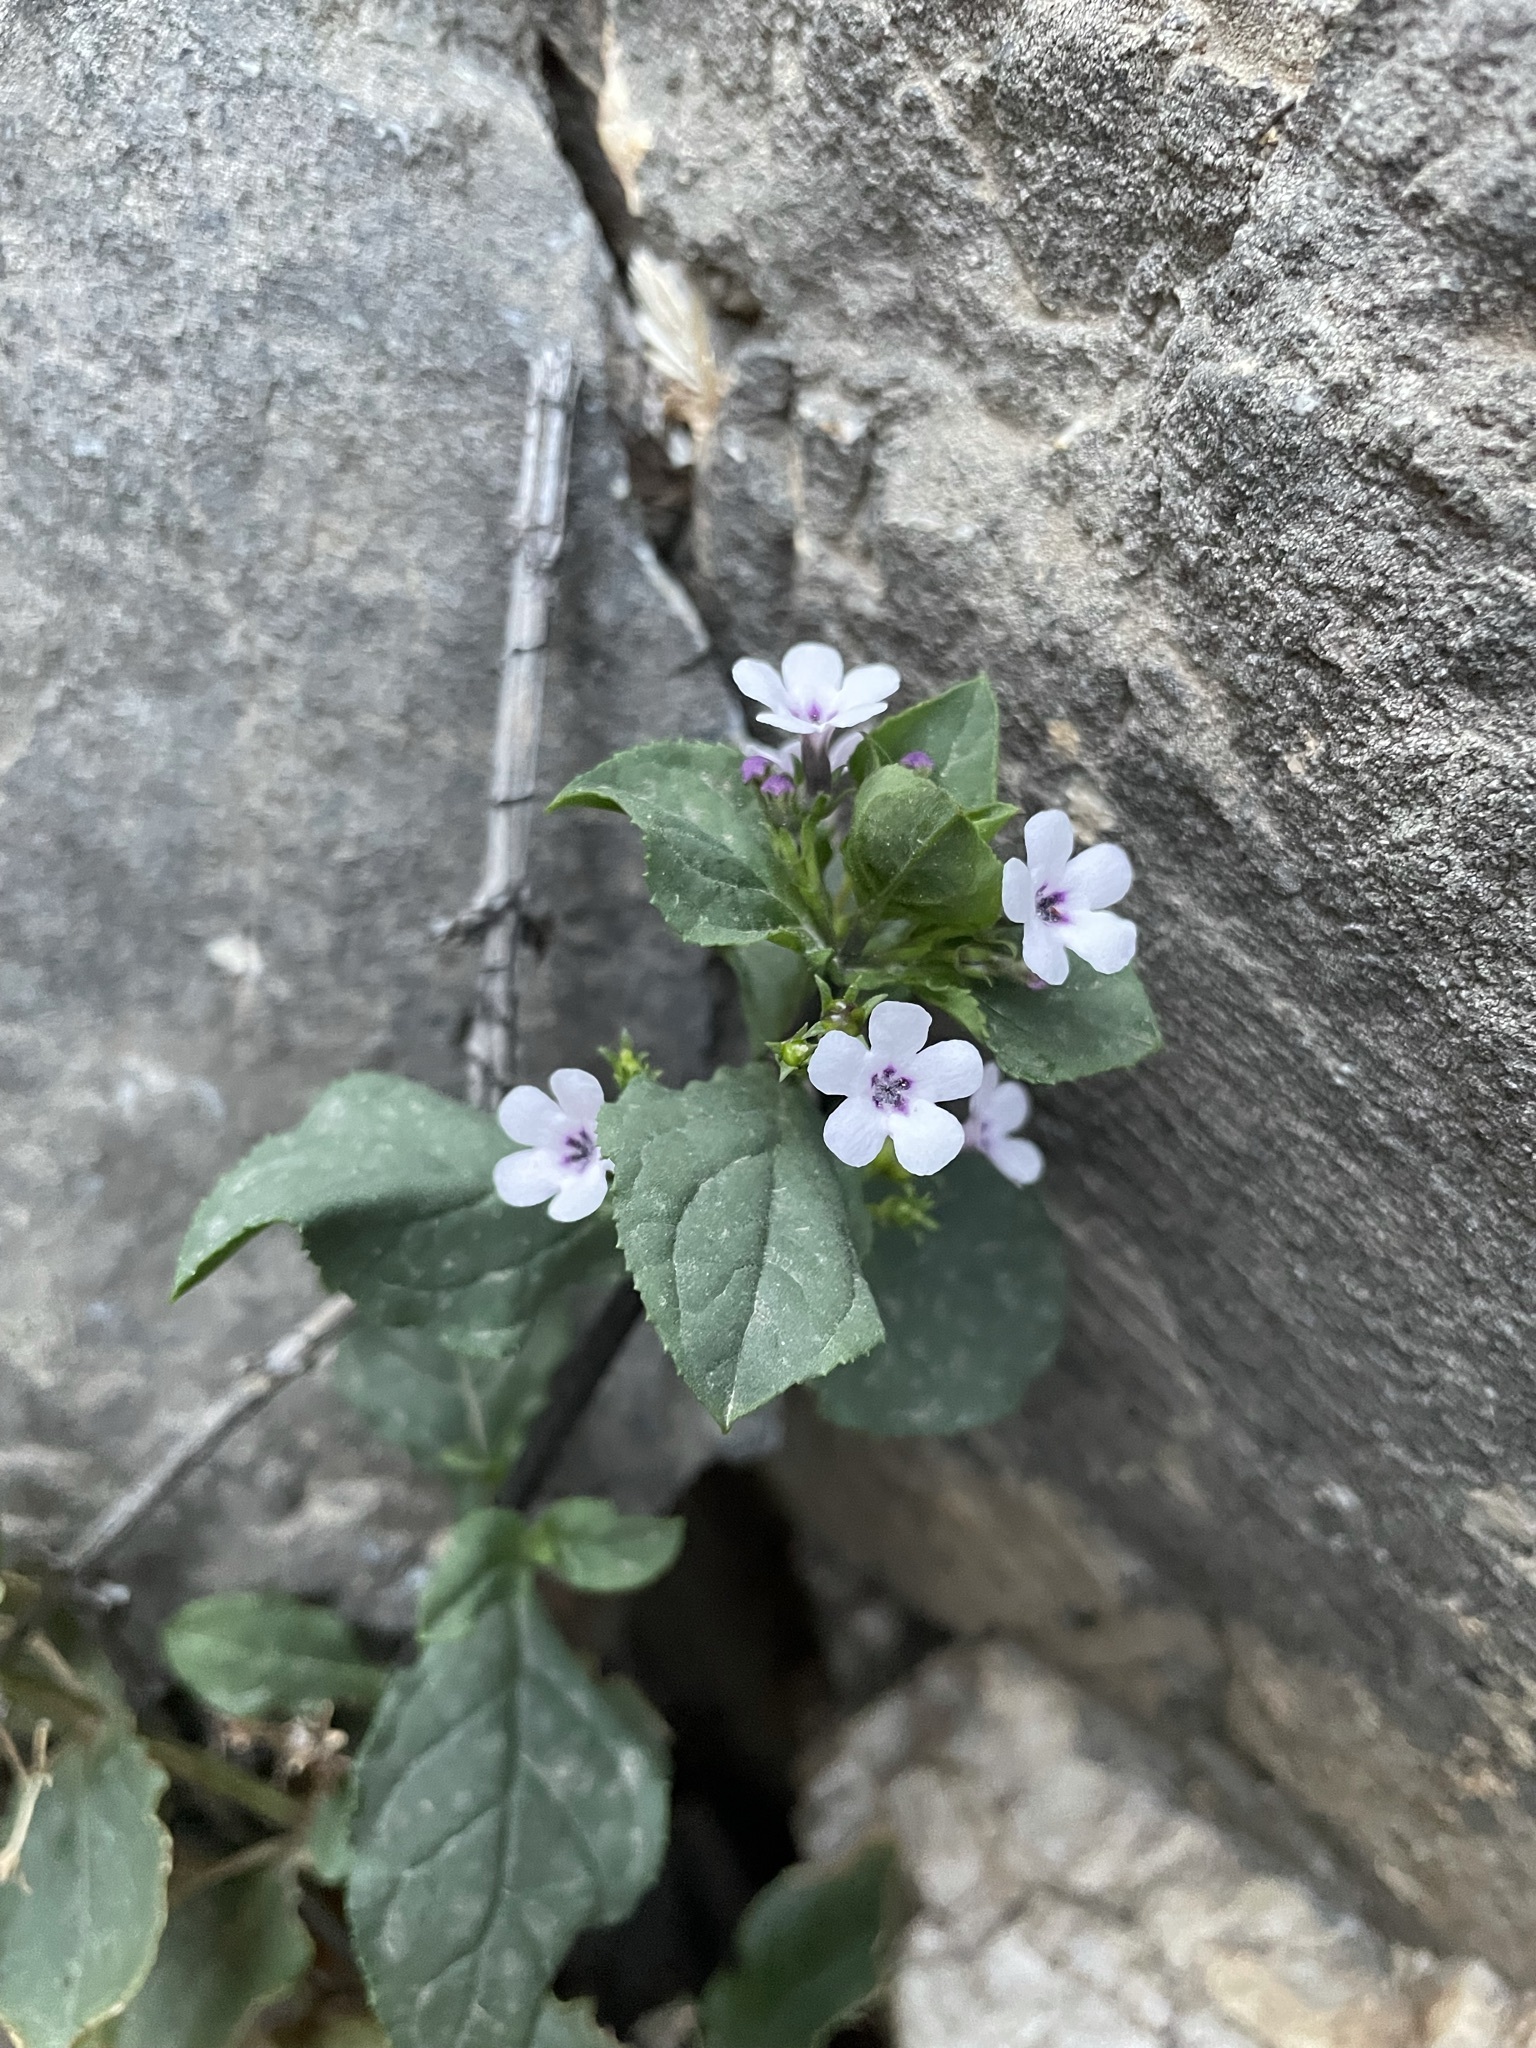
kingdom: Plantae
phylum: Tracheophyta
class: Magnoliopsida
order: Lamiales
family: Scrophulariaceae
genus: Teedia
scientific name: Teedia lucida
